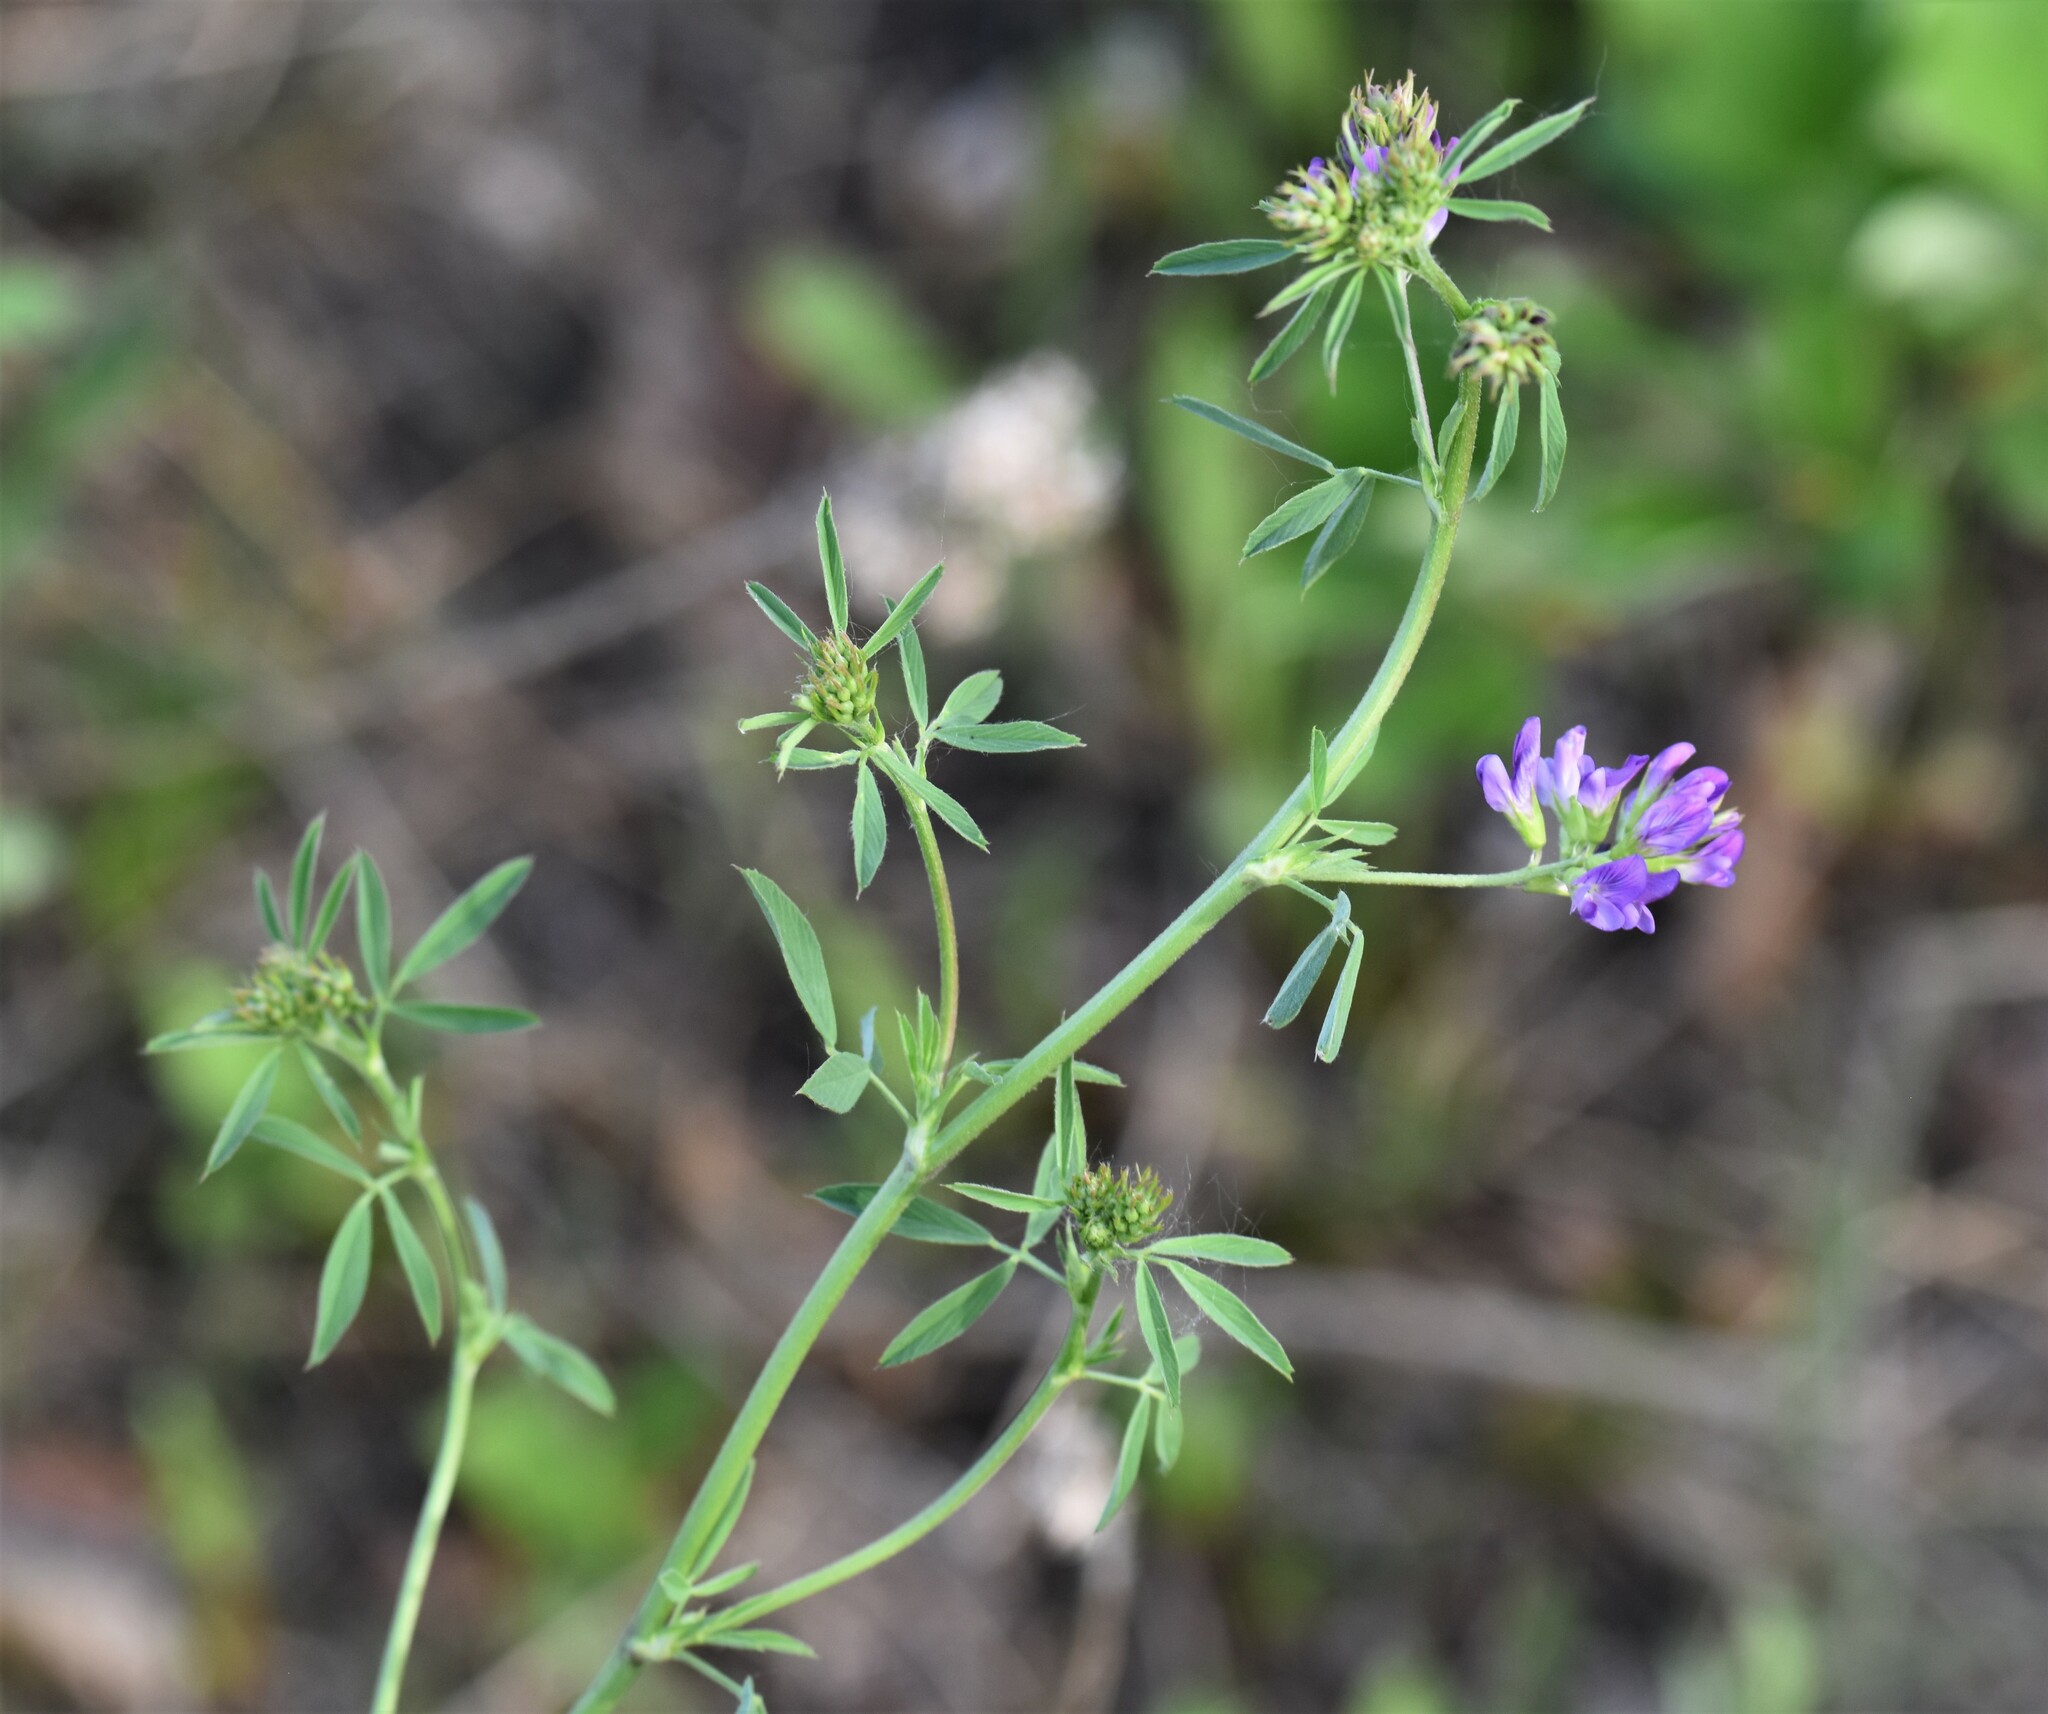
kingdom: Plantae
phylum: Tracheophyta
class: Magnoliopsida
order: Fabales
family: Fabaceae
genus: Medicago
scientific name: Medicago sativa
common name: Alfalfa
